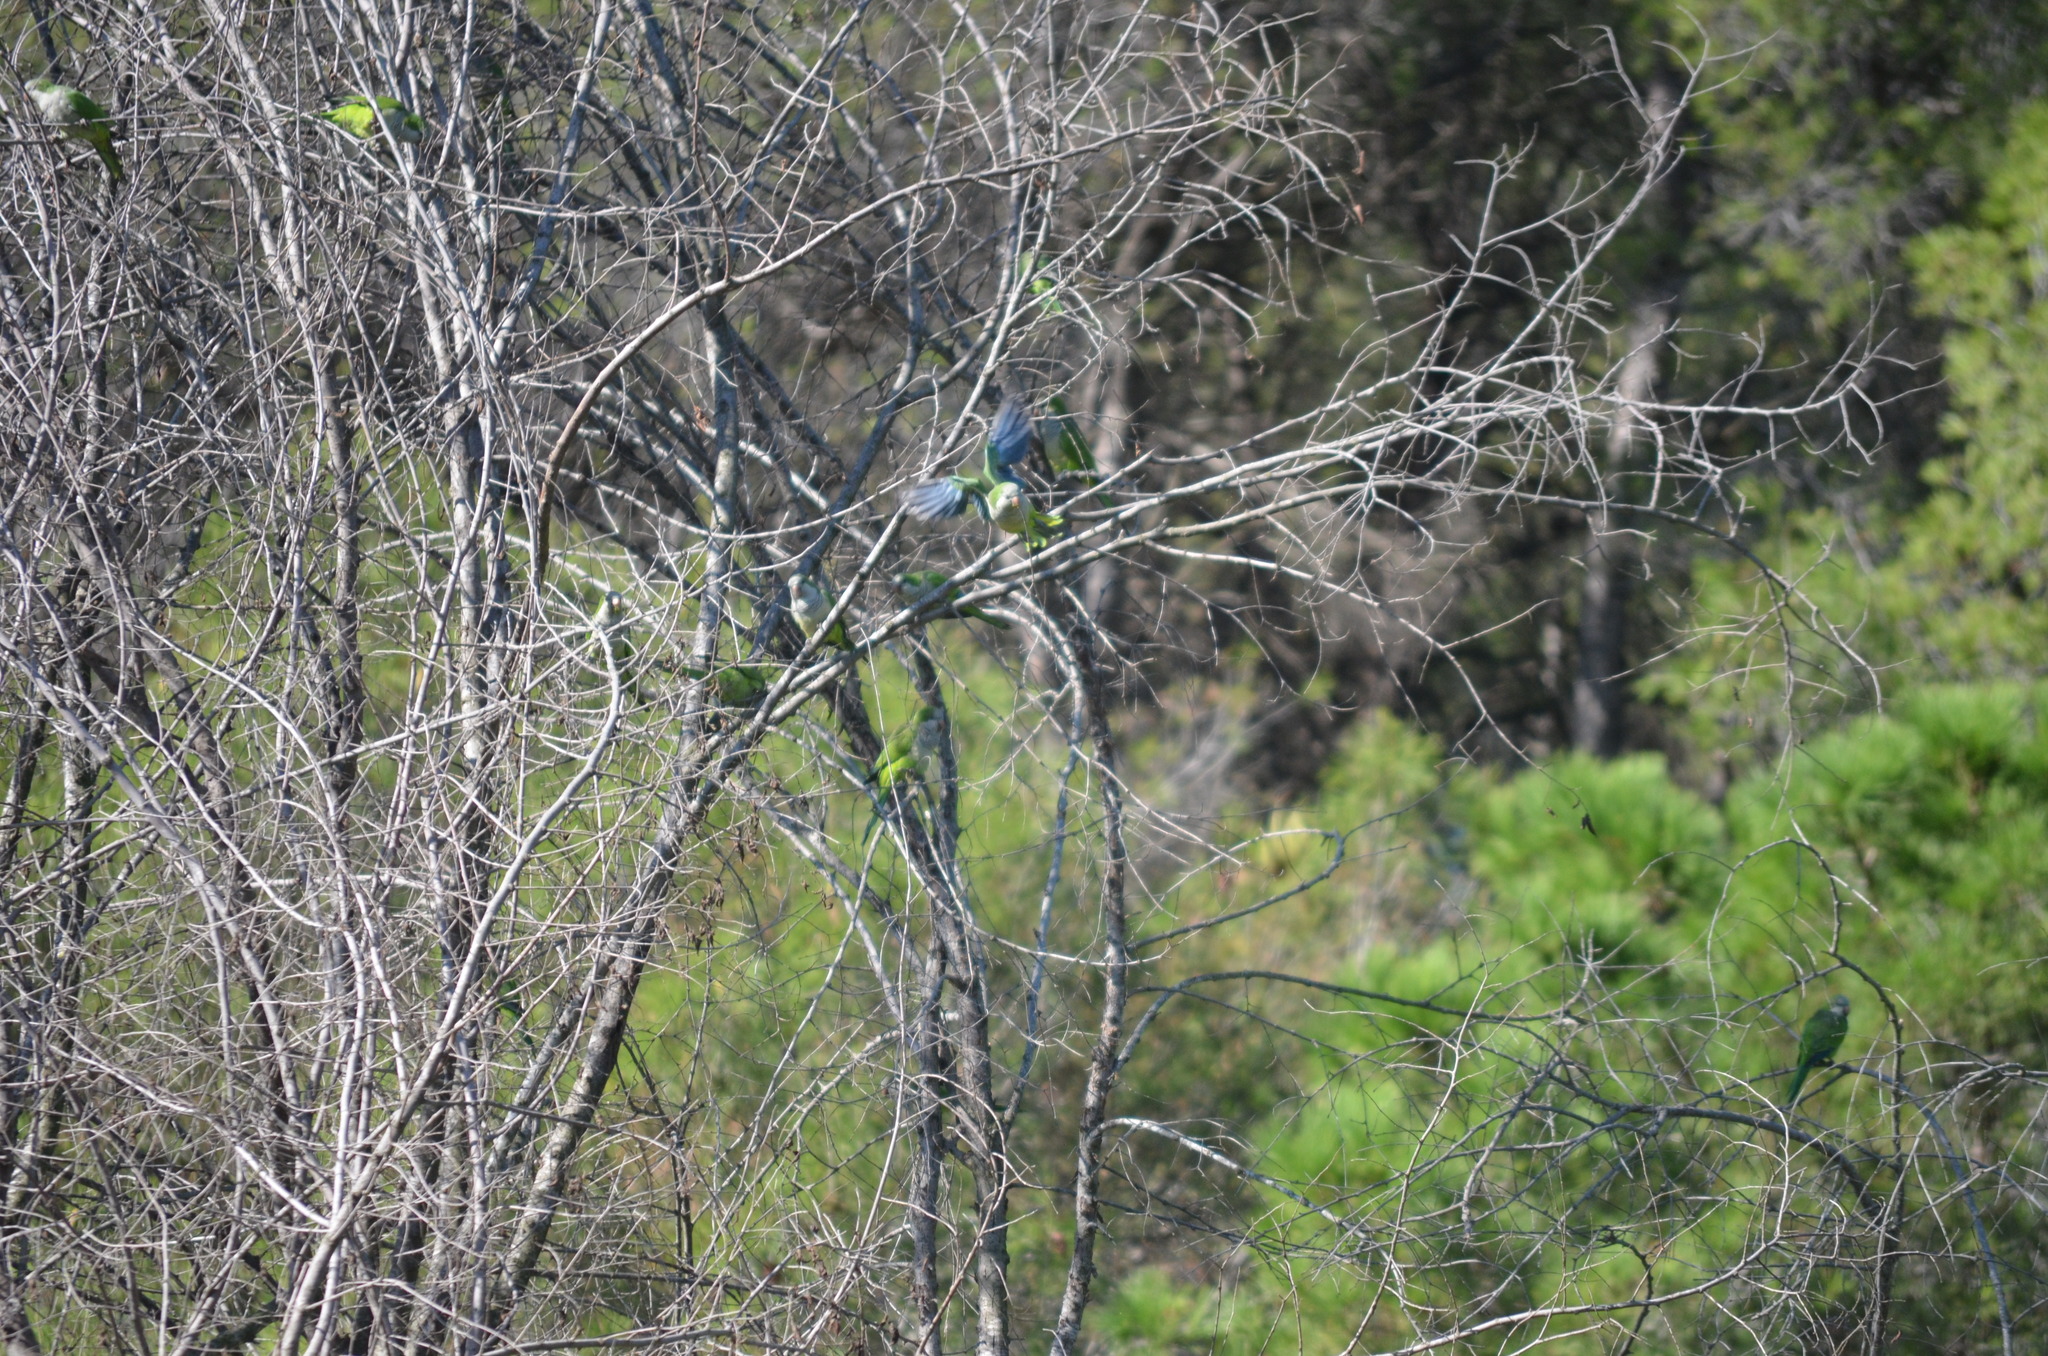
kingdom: Animalia
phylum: Chordata
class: Aves
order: Psittaciformes
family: Psittacidae
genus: Myiopsitta
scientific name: Myiopsitta monachus
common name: Monk parakeet
